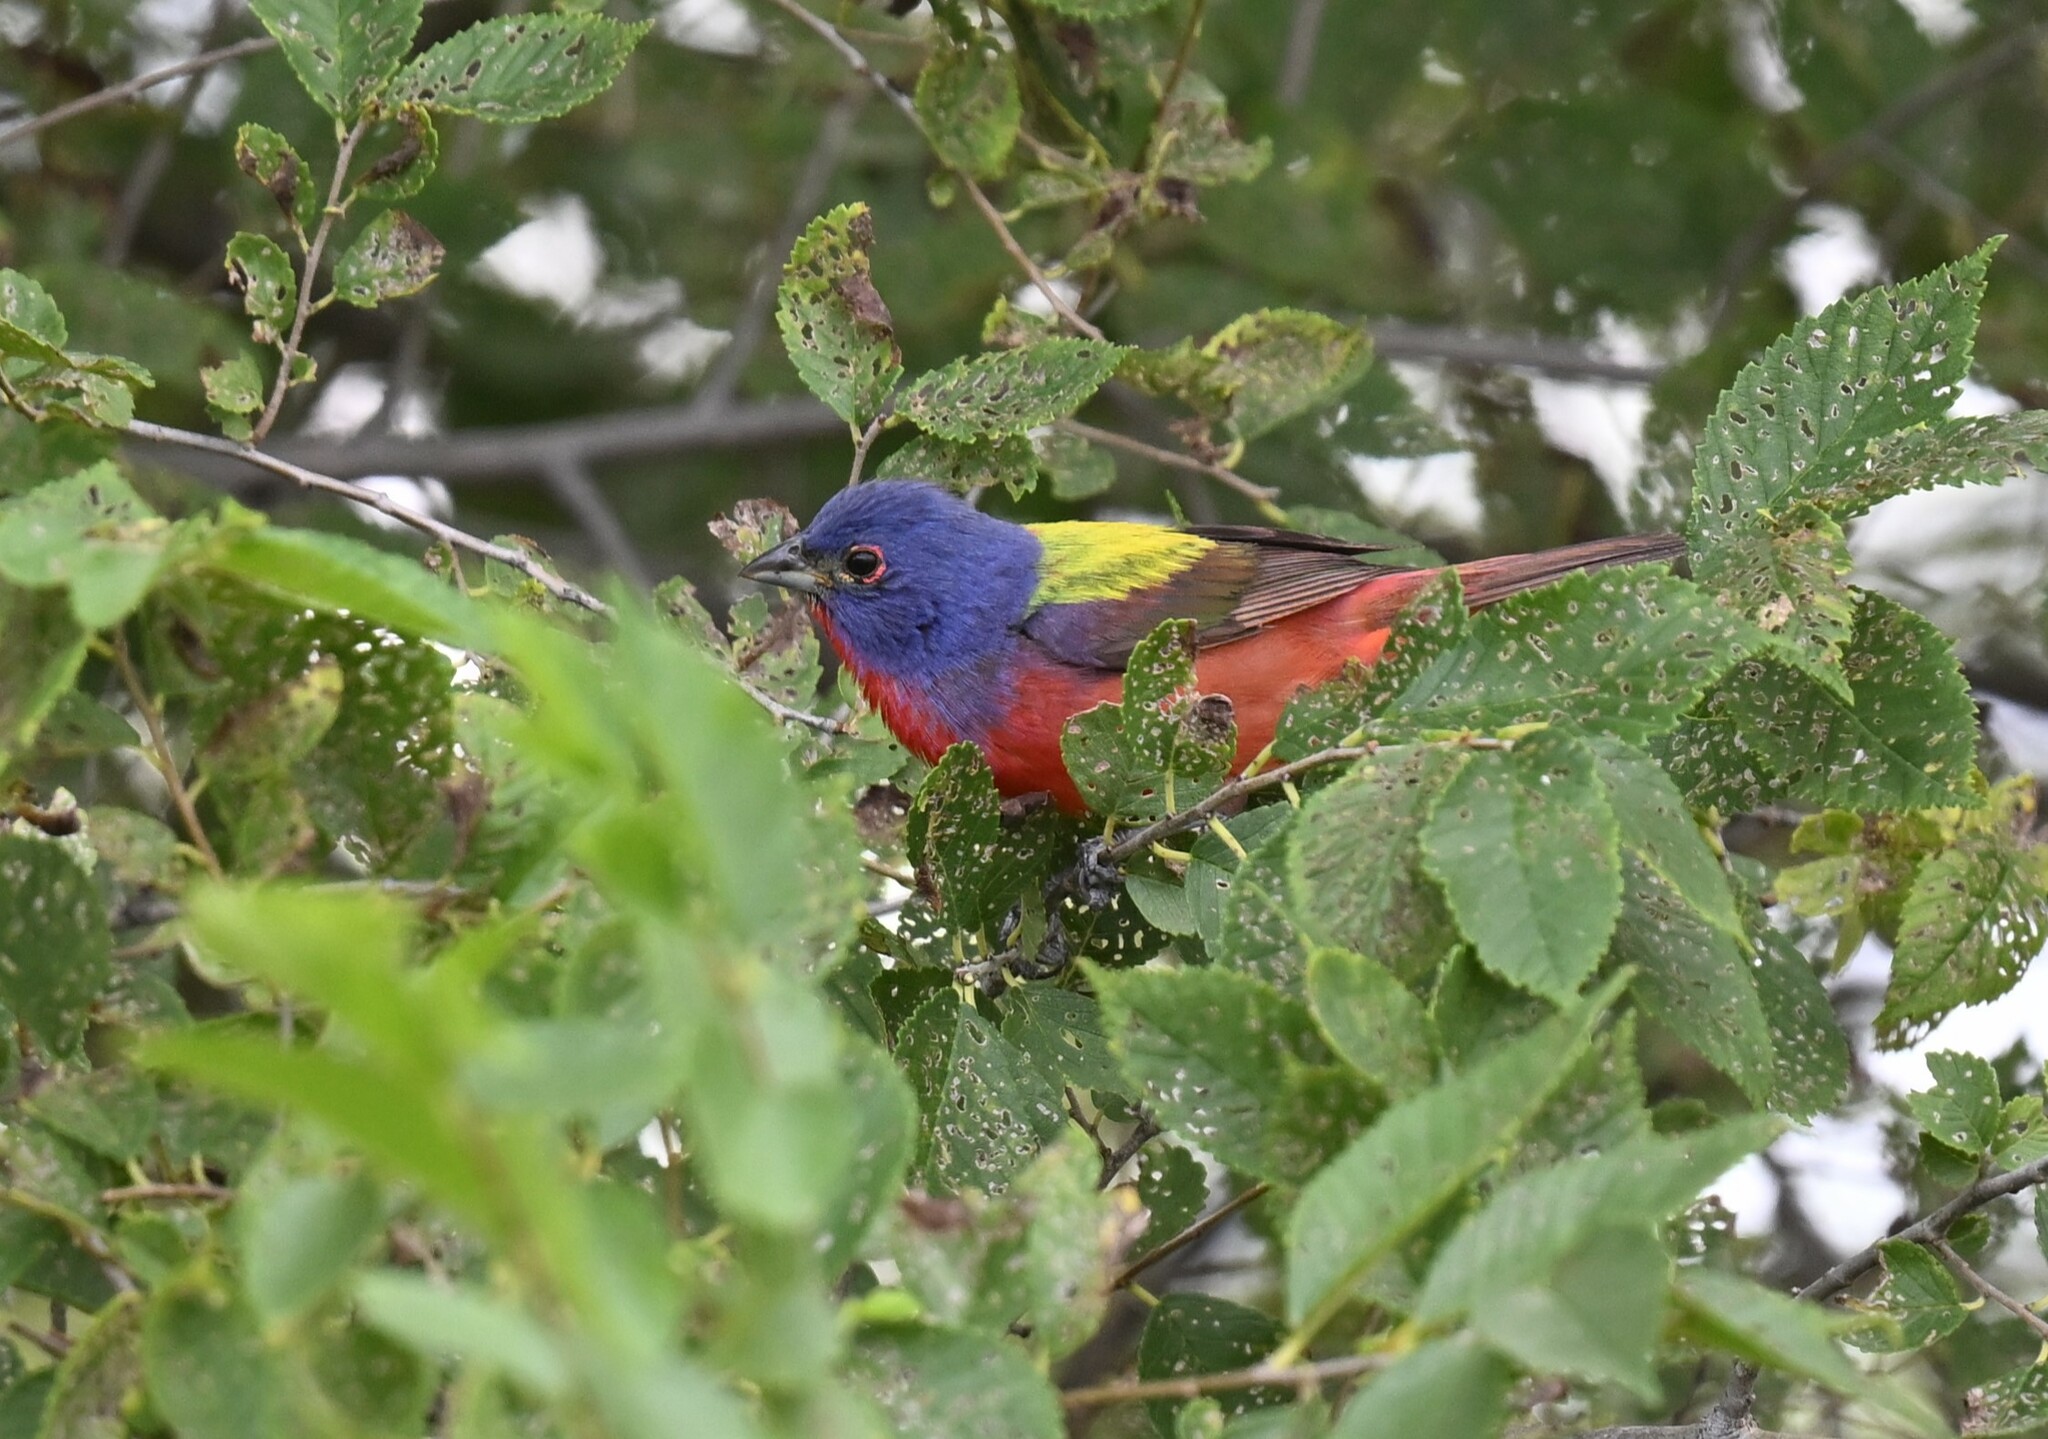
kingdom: Animalia
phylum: Chordata
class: Aves
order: Passeriformes
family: Cardinalidae
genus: Passerina
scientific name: Passerina ciris
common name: Painted bunting
